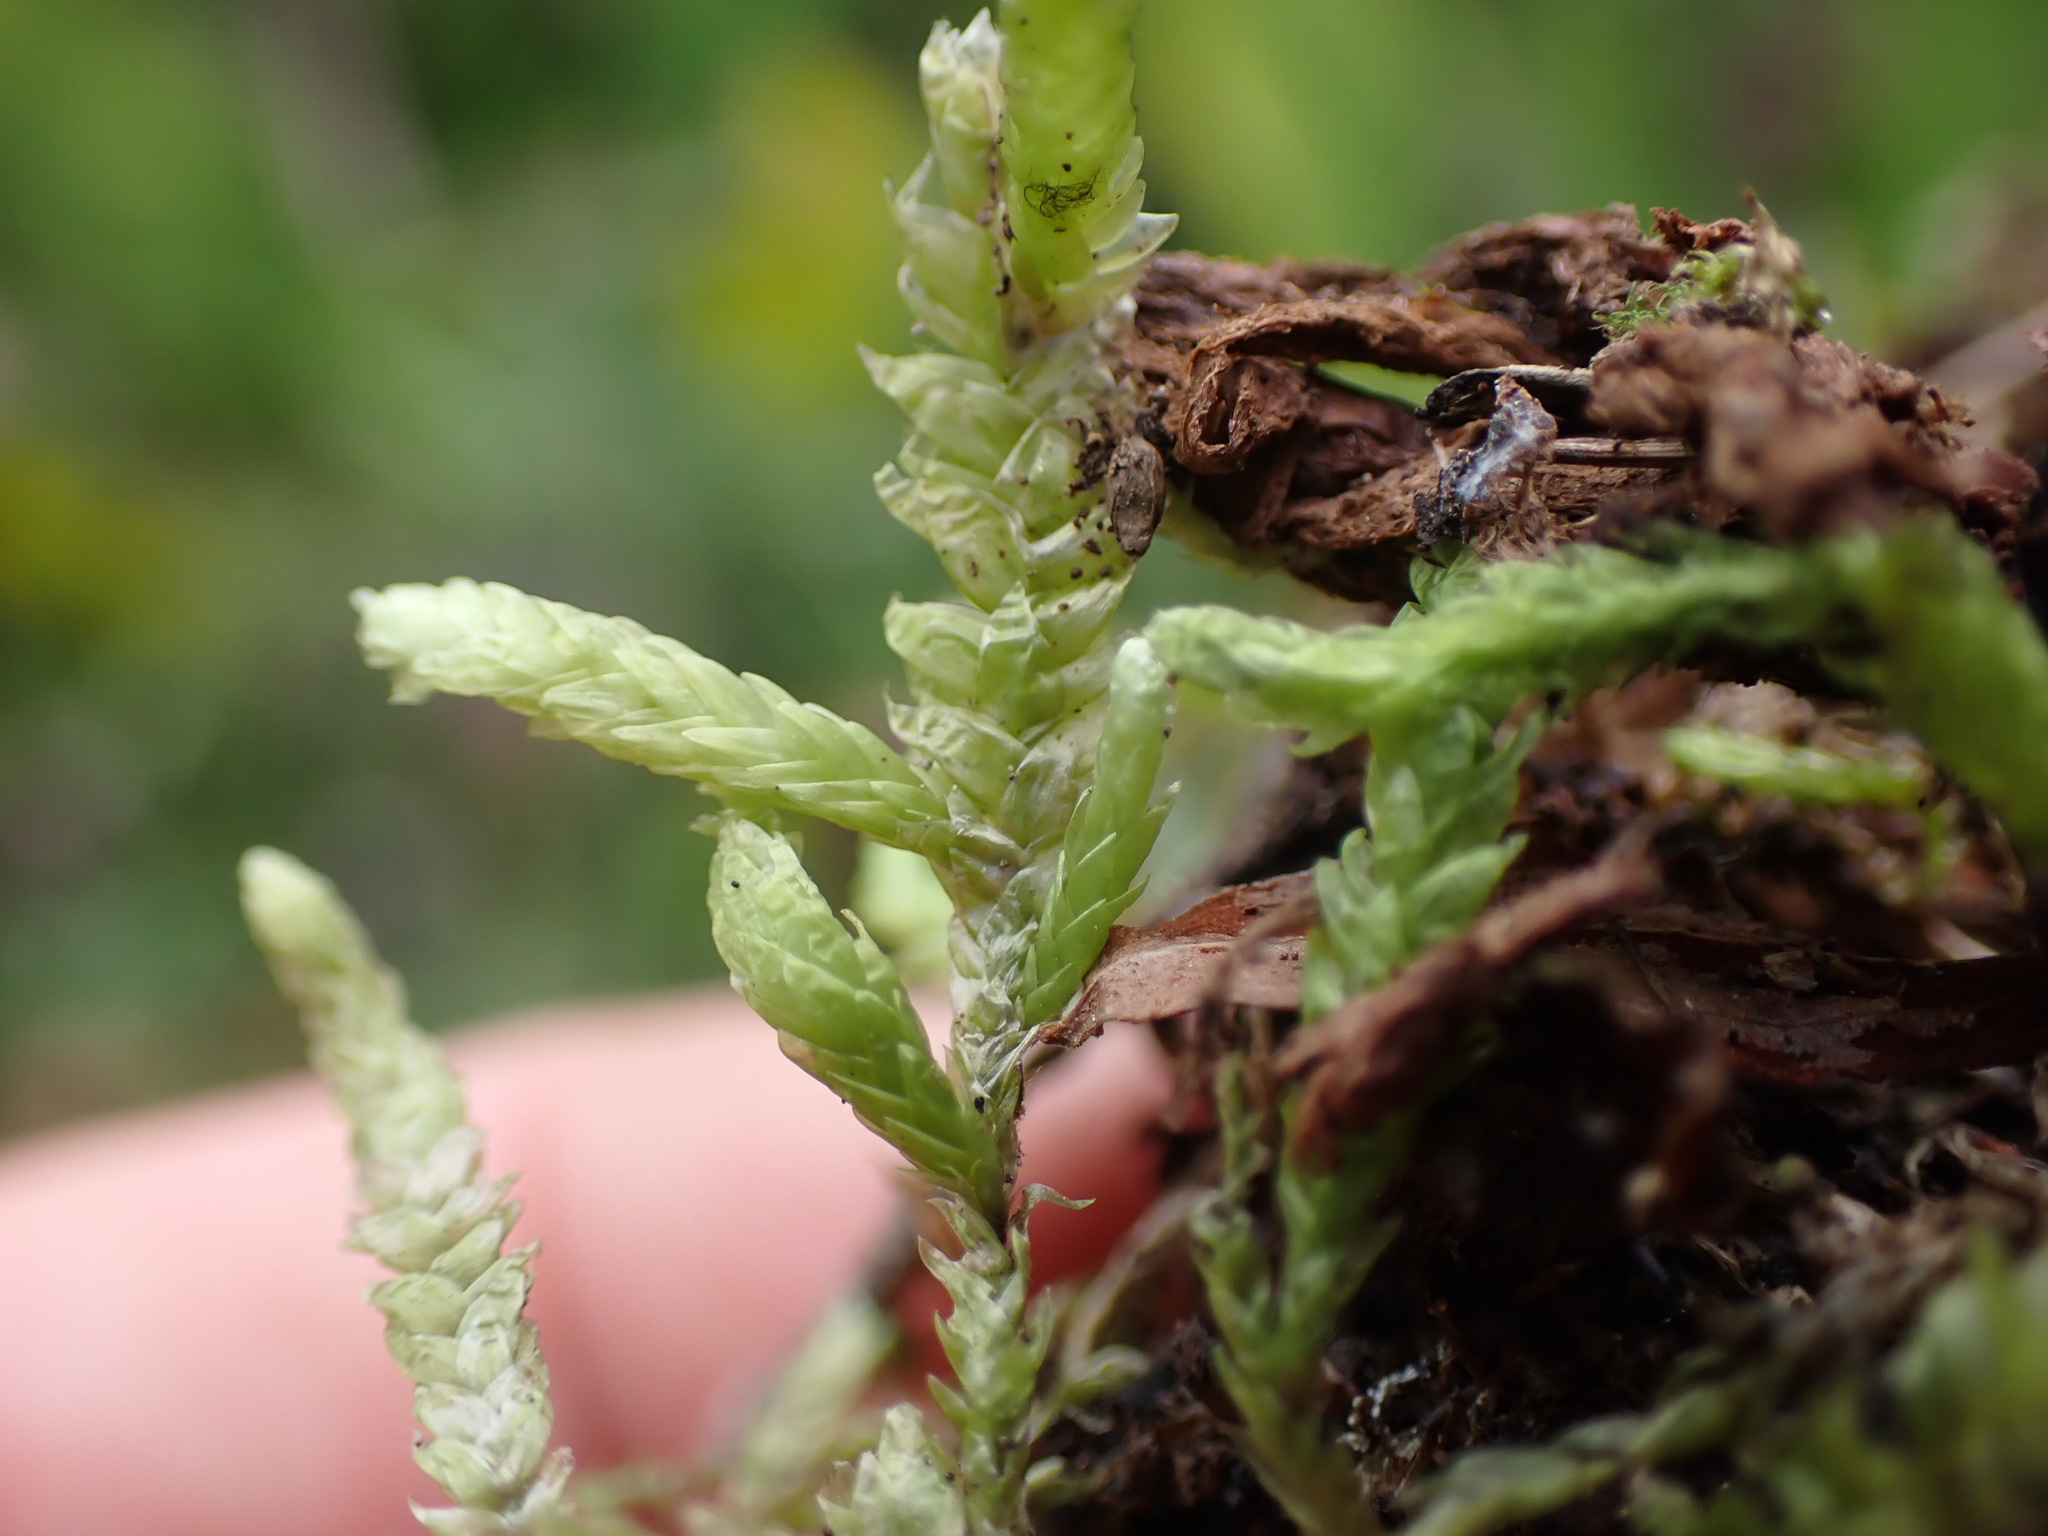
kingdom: Plantae
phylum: Bryophyta
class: Bryopsida
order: Hypnales
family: Plagiotheciaceae
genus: Plagiothecium
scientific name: Plagiothecium undulatum
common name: Waved silk-moss
